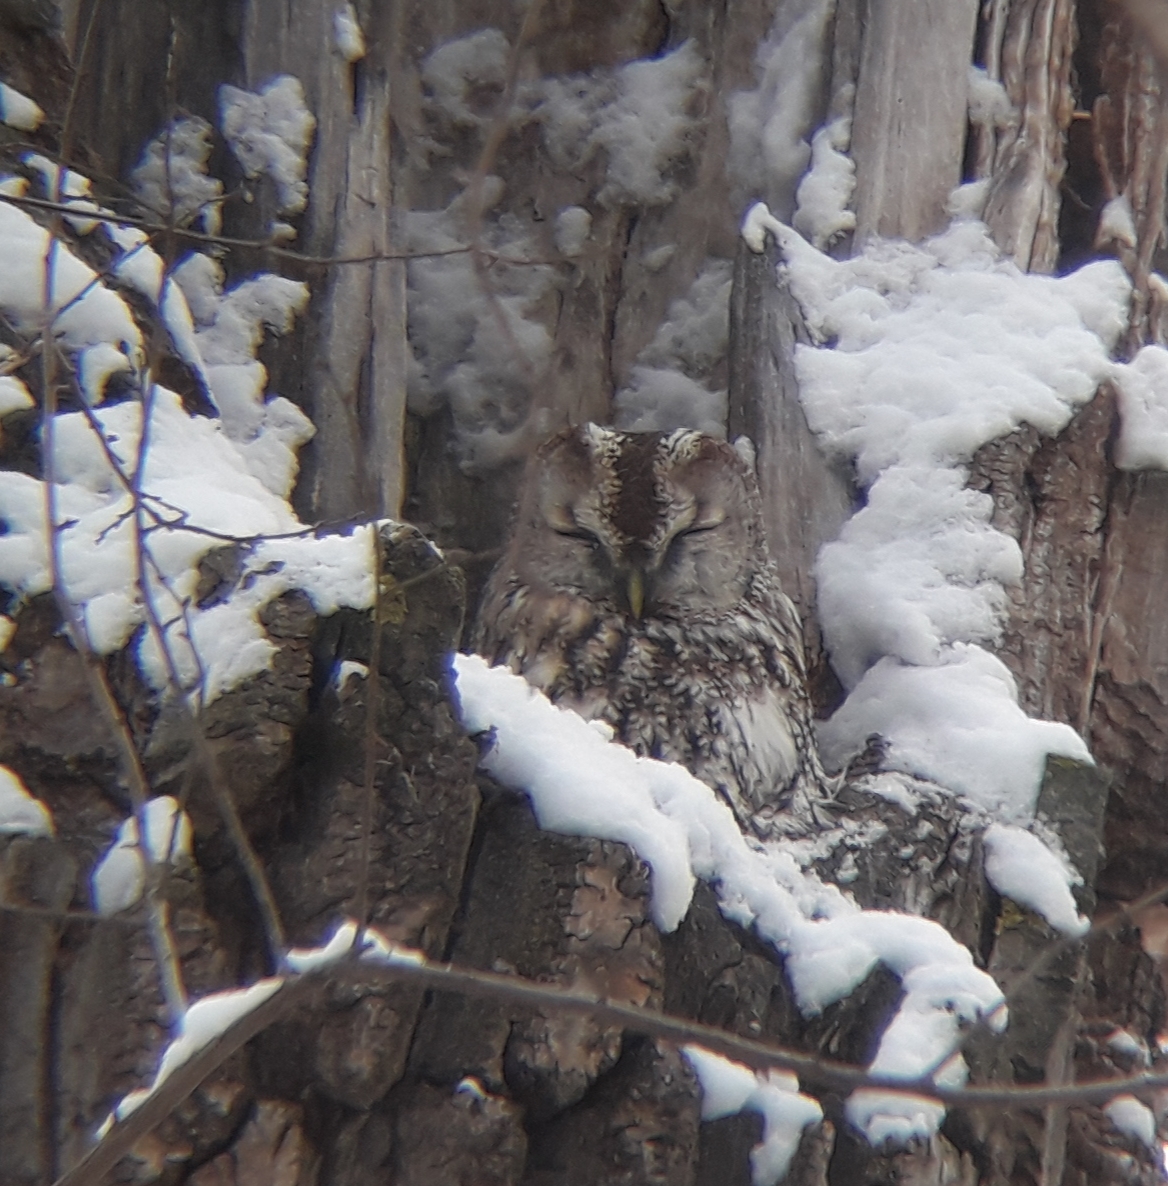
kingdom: Animalia
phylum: Chordata
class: Aves
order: Strigiformes
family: Strigidae
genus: Strix
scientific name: Strix aluco
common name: Tawny owl
